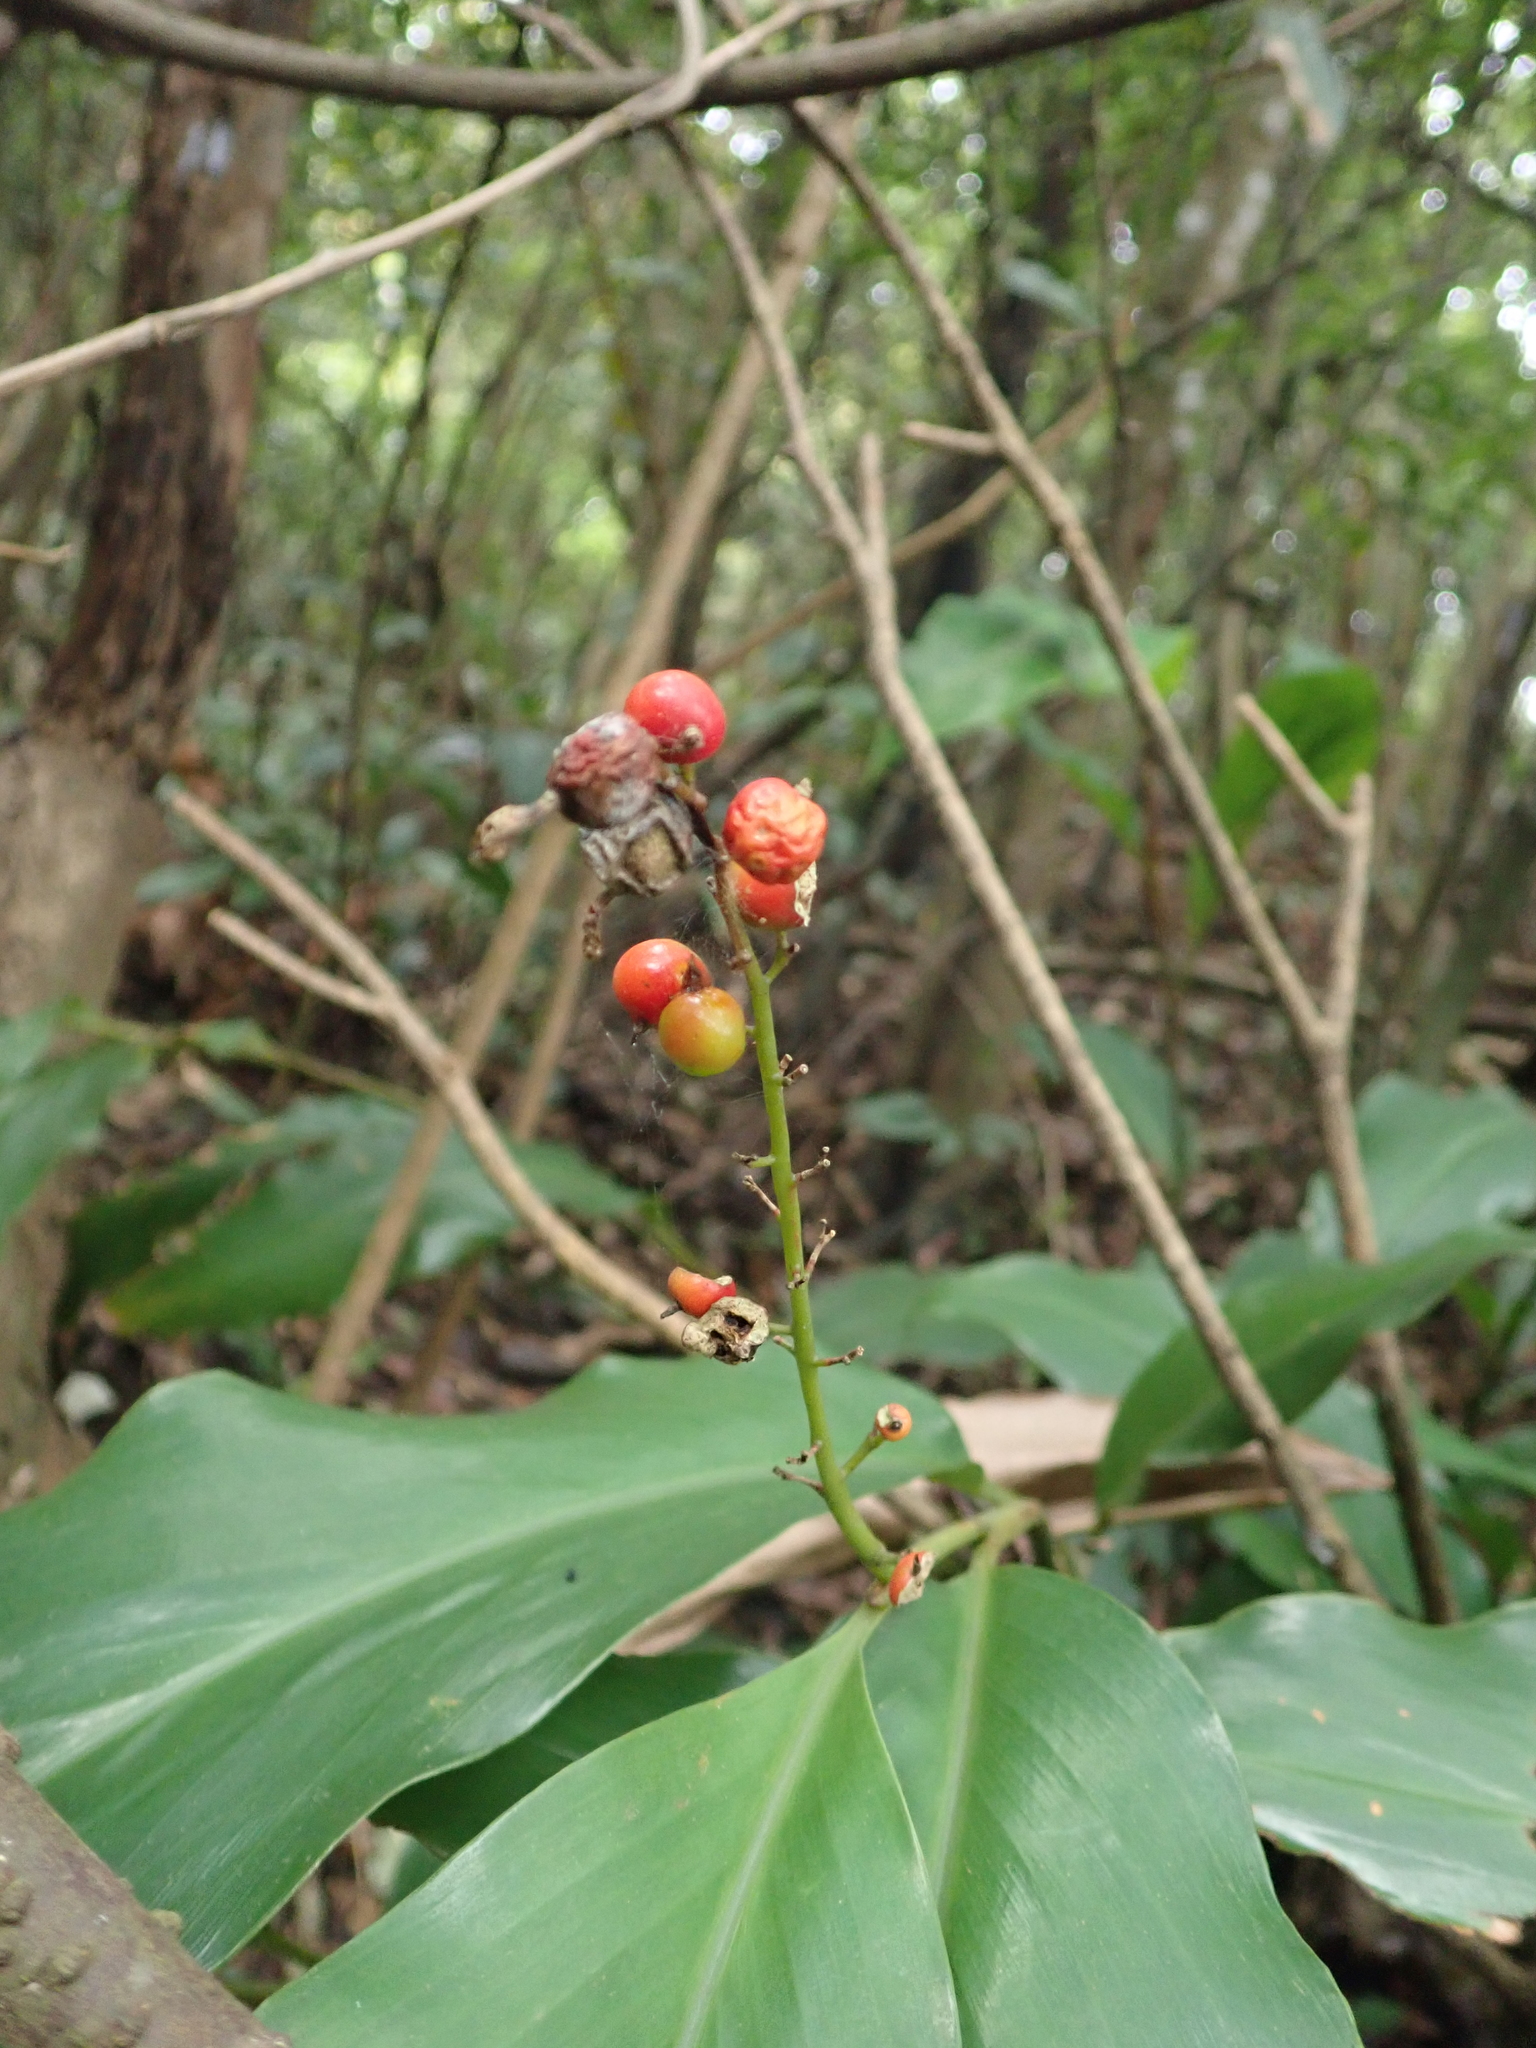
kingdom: Plantae
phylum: Tracheophyta
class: Liliopsida
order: Zingiberales
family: Zingiberaceae
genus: Alpinia
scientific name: Alpinia intermedia
